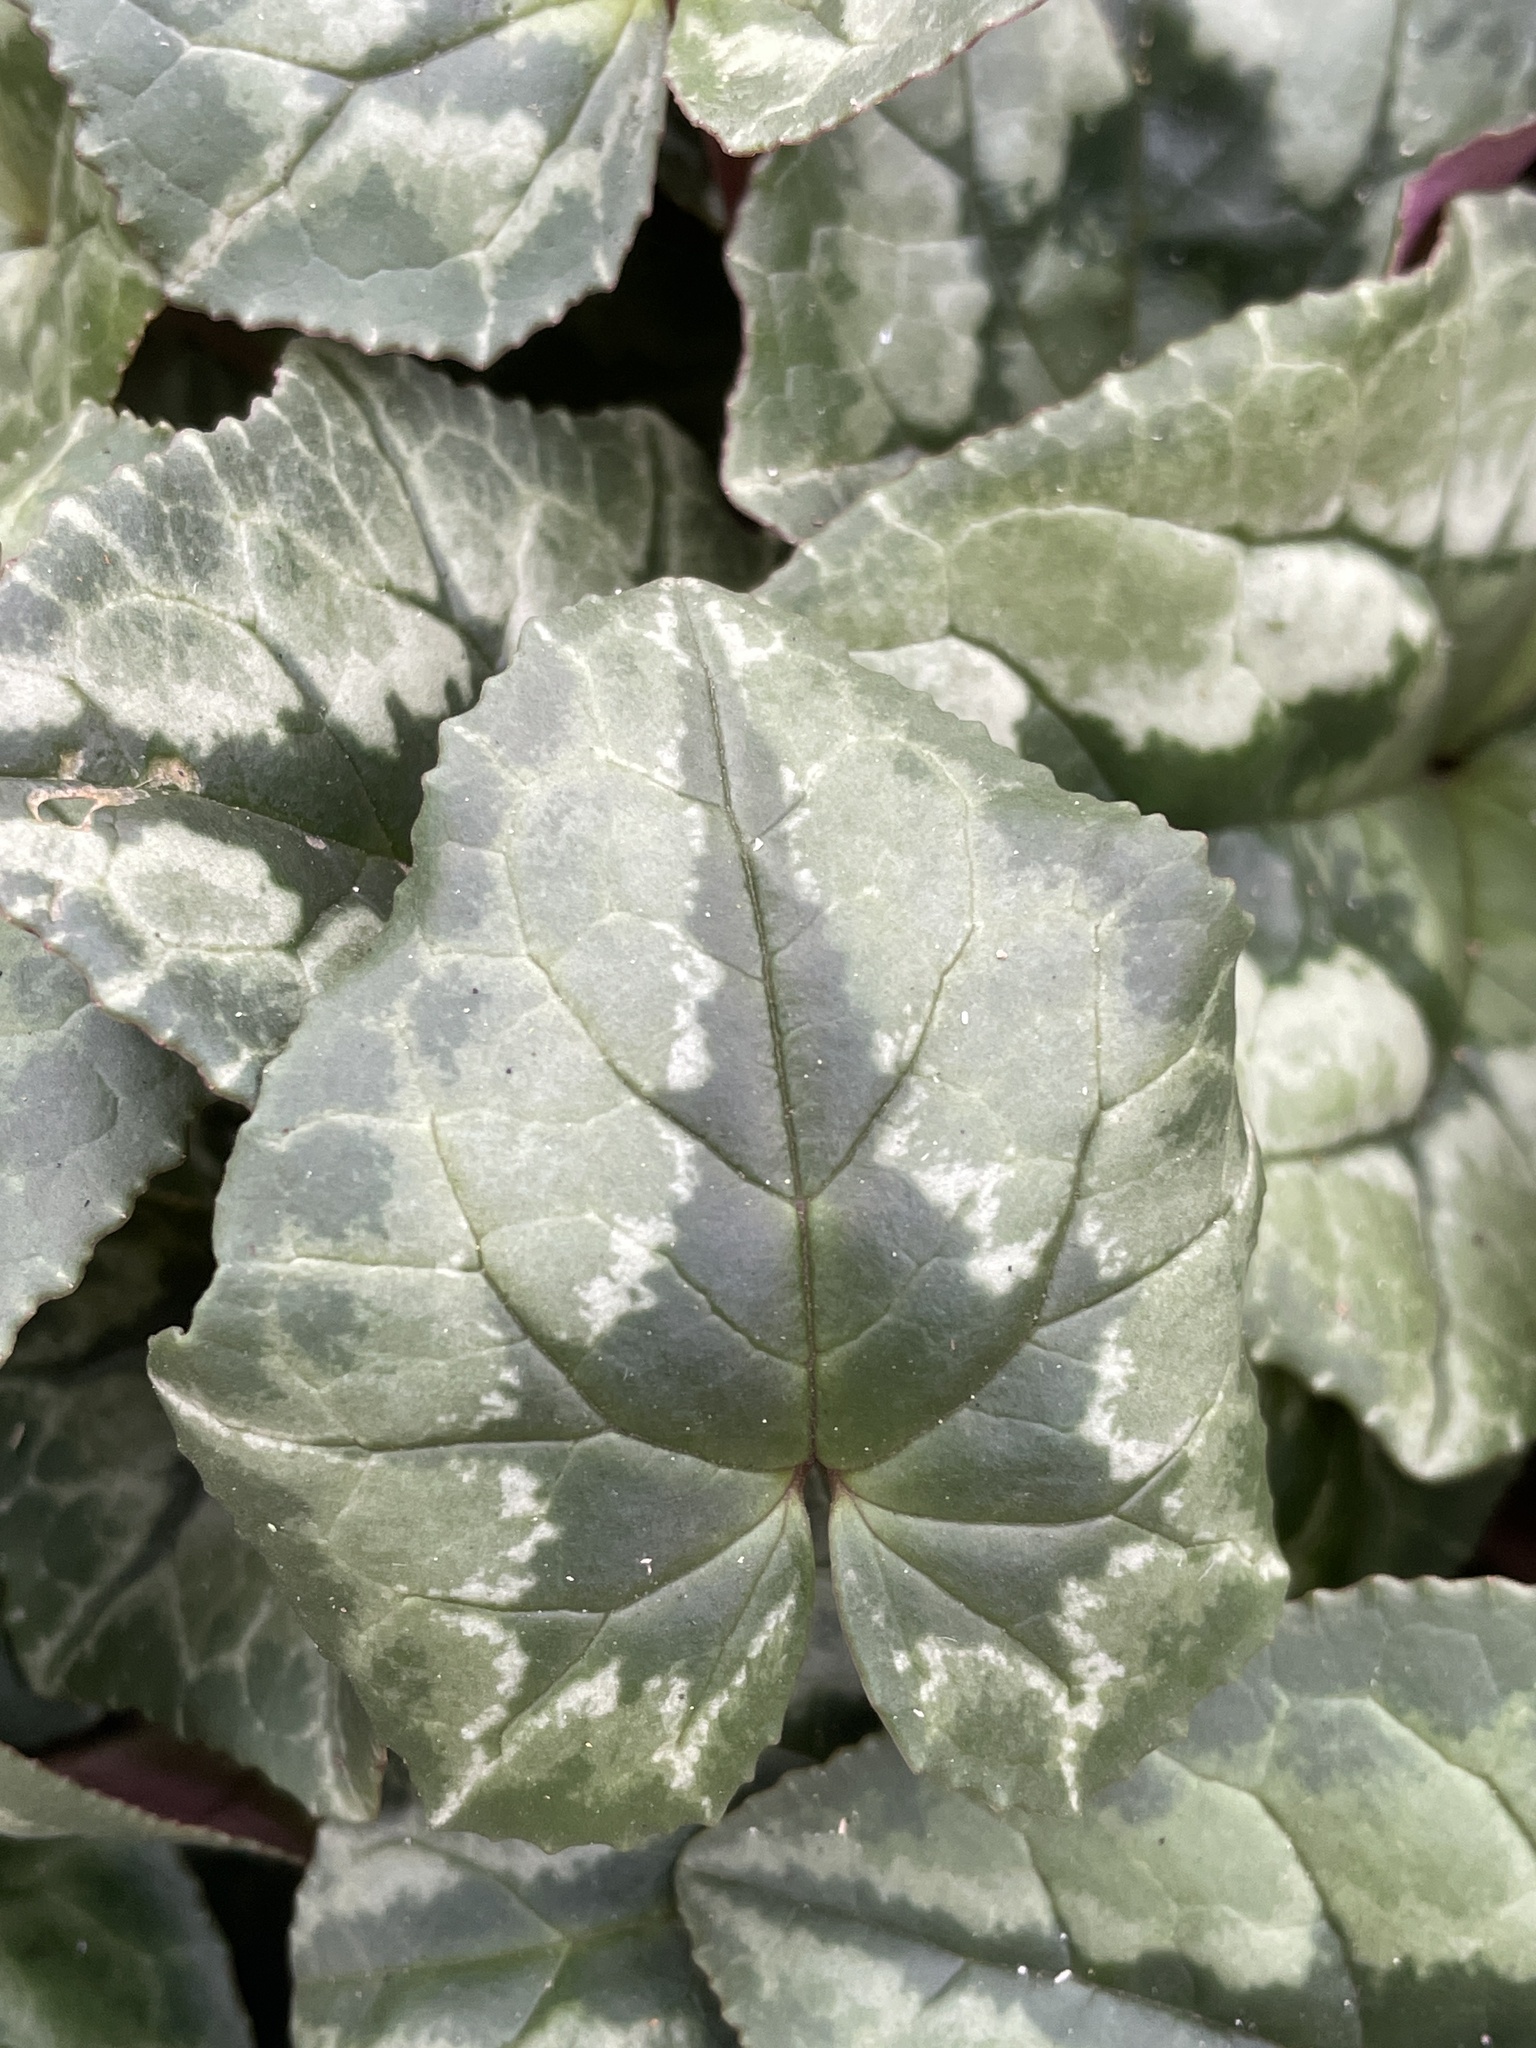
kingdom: Plantae
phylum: Tracheophyta
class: Magnoliopsida
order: Ericales
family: Primulaceae
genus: Cyclamen
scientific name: Cyclamen hederifolium
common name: Sowbread
